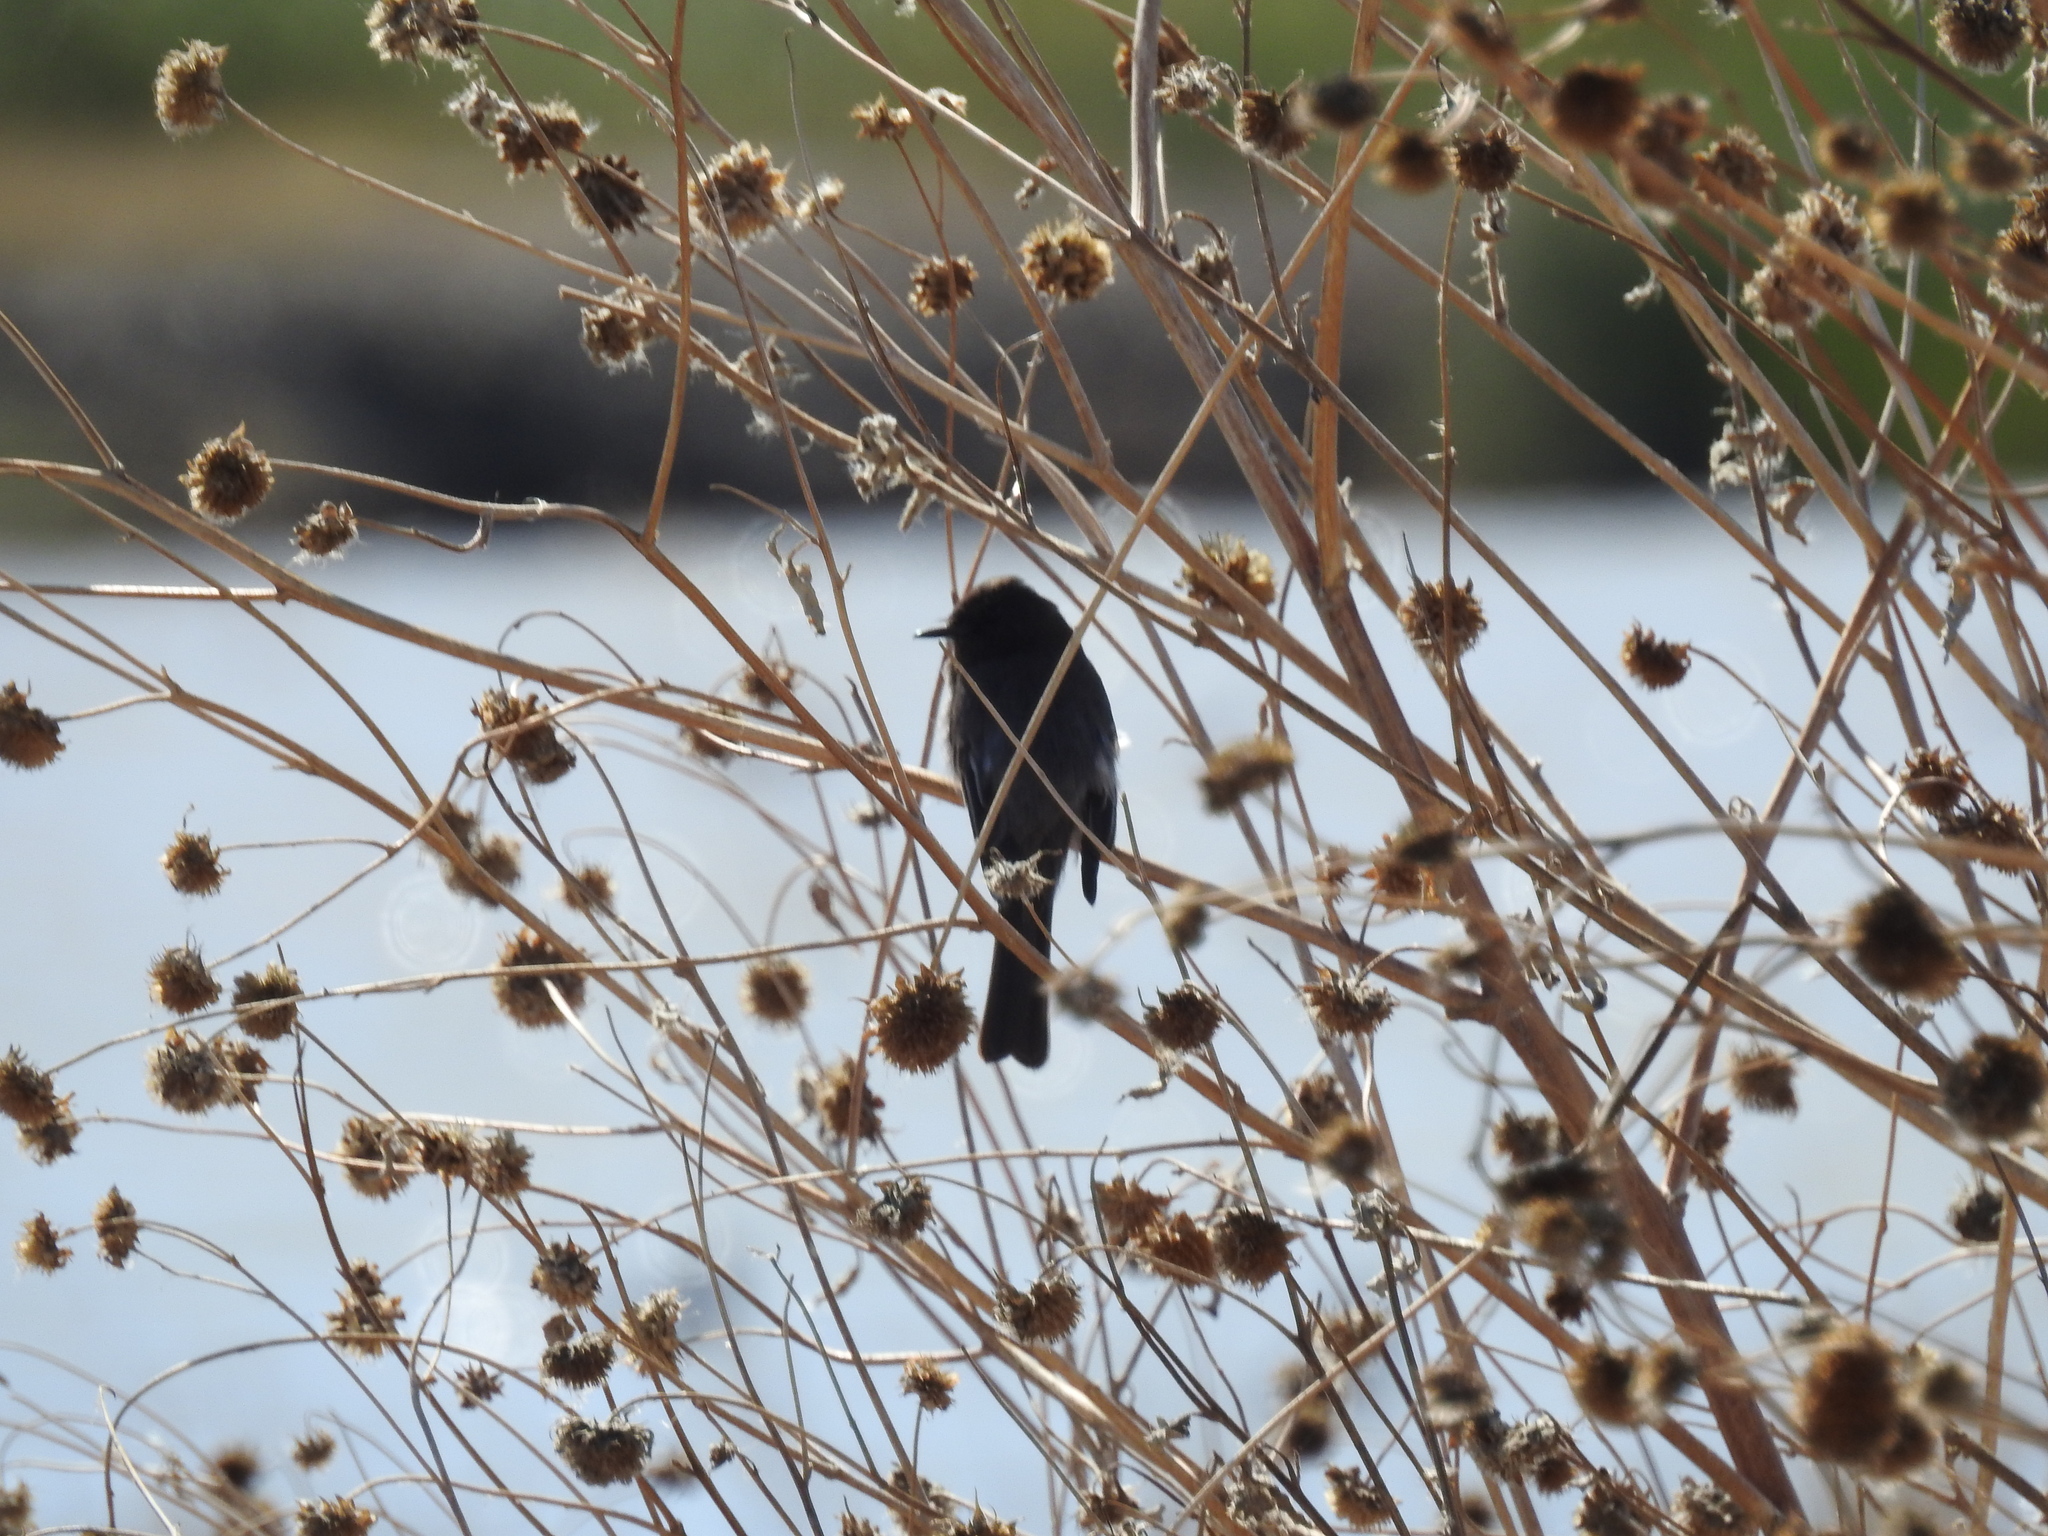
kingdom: Animalia
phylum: Chordata
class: Aves
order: Passeriformes
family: Tyrannidae
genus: Sayornis
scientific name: Sayornis nigricans
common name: Black phoebe
